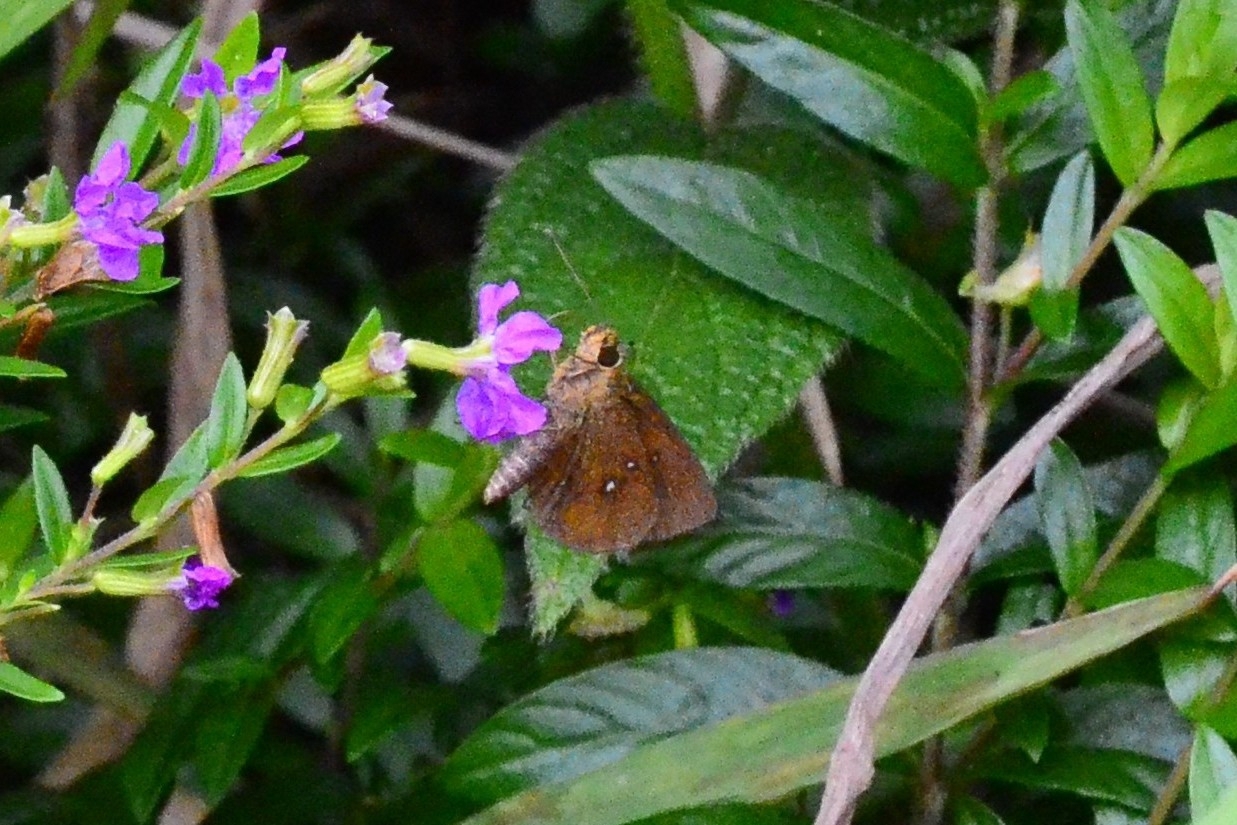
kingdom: Animalia
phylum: Arthropoda
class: Insecta
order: Lepidoptera
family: Hesperiidae
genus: Iambrix
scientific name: Iambrix salsala
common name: Chestnut bob
